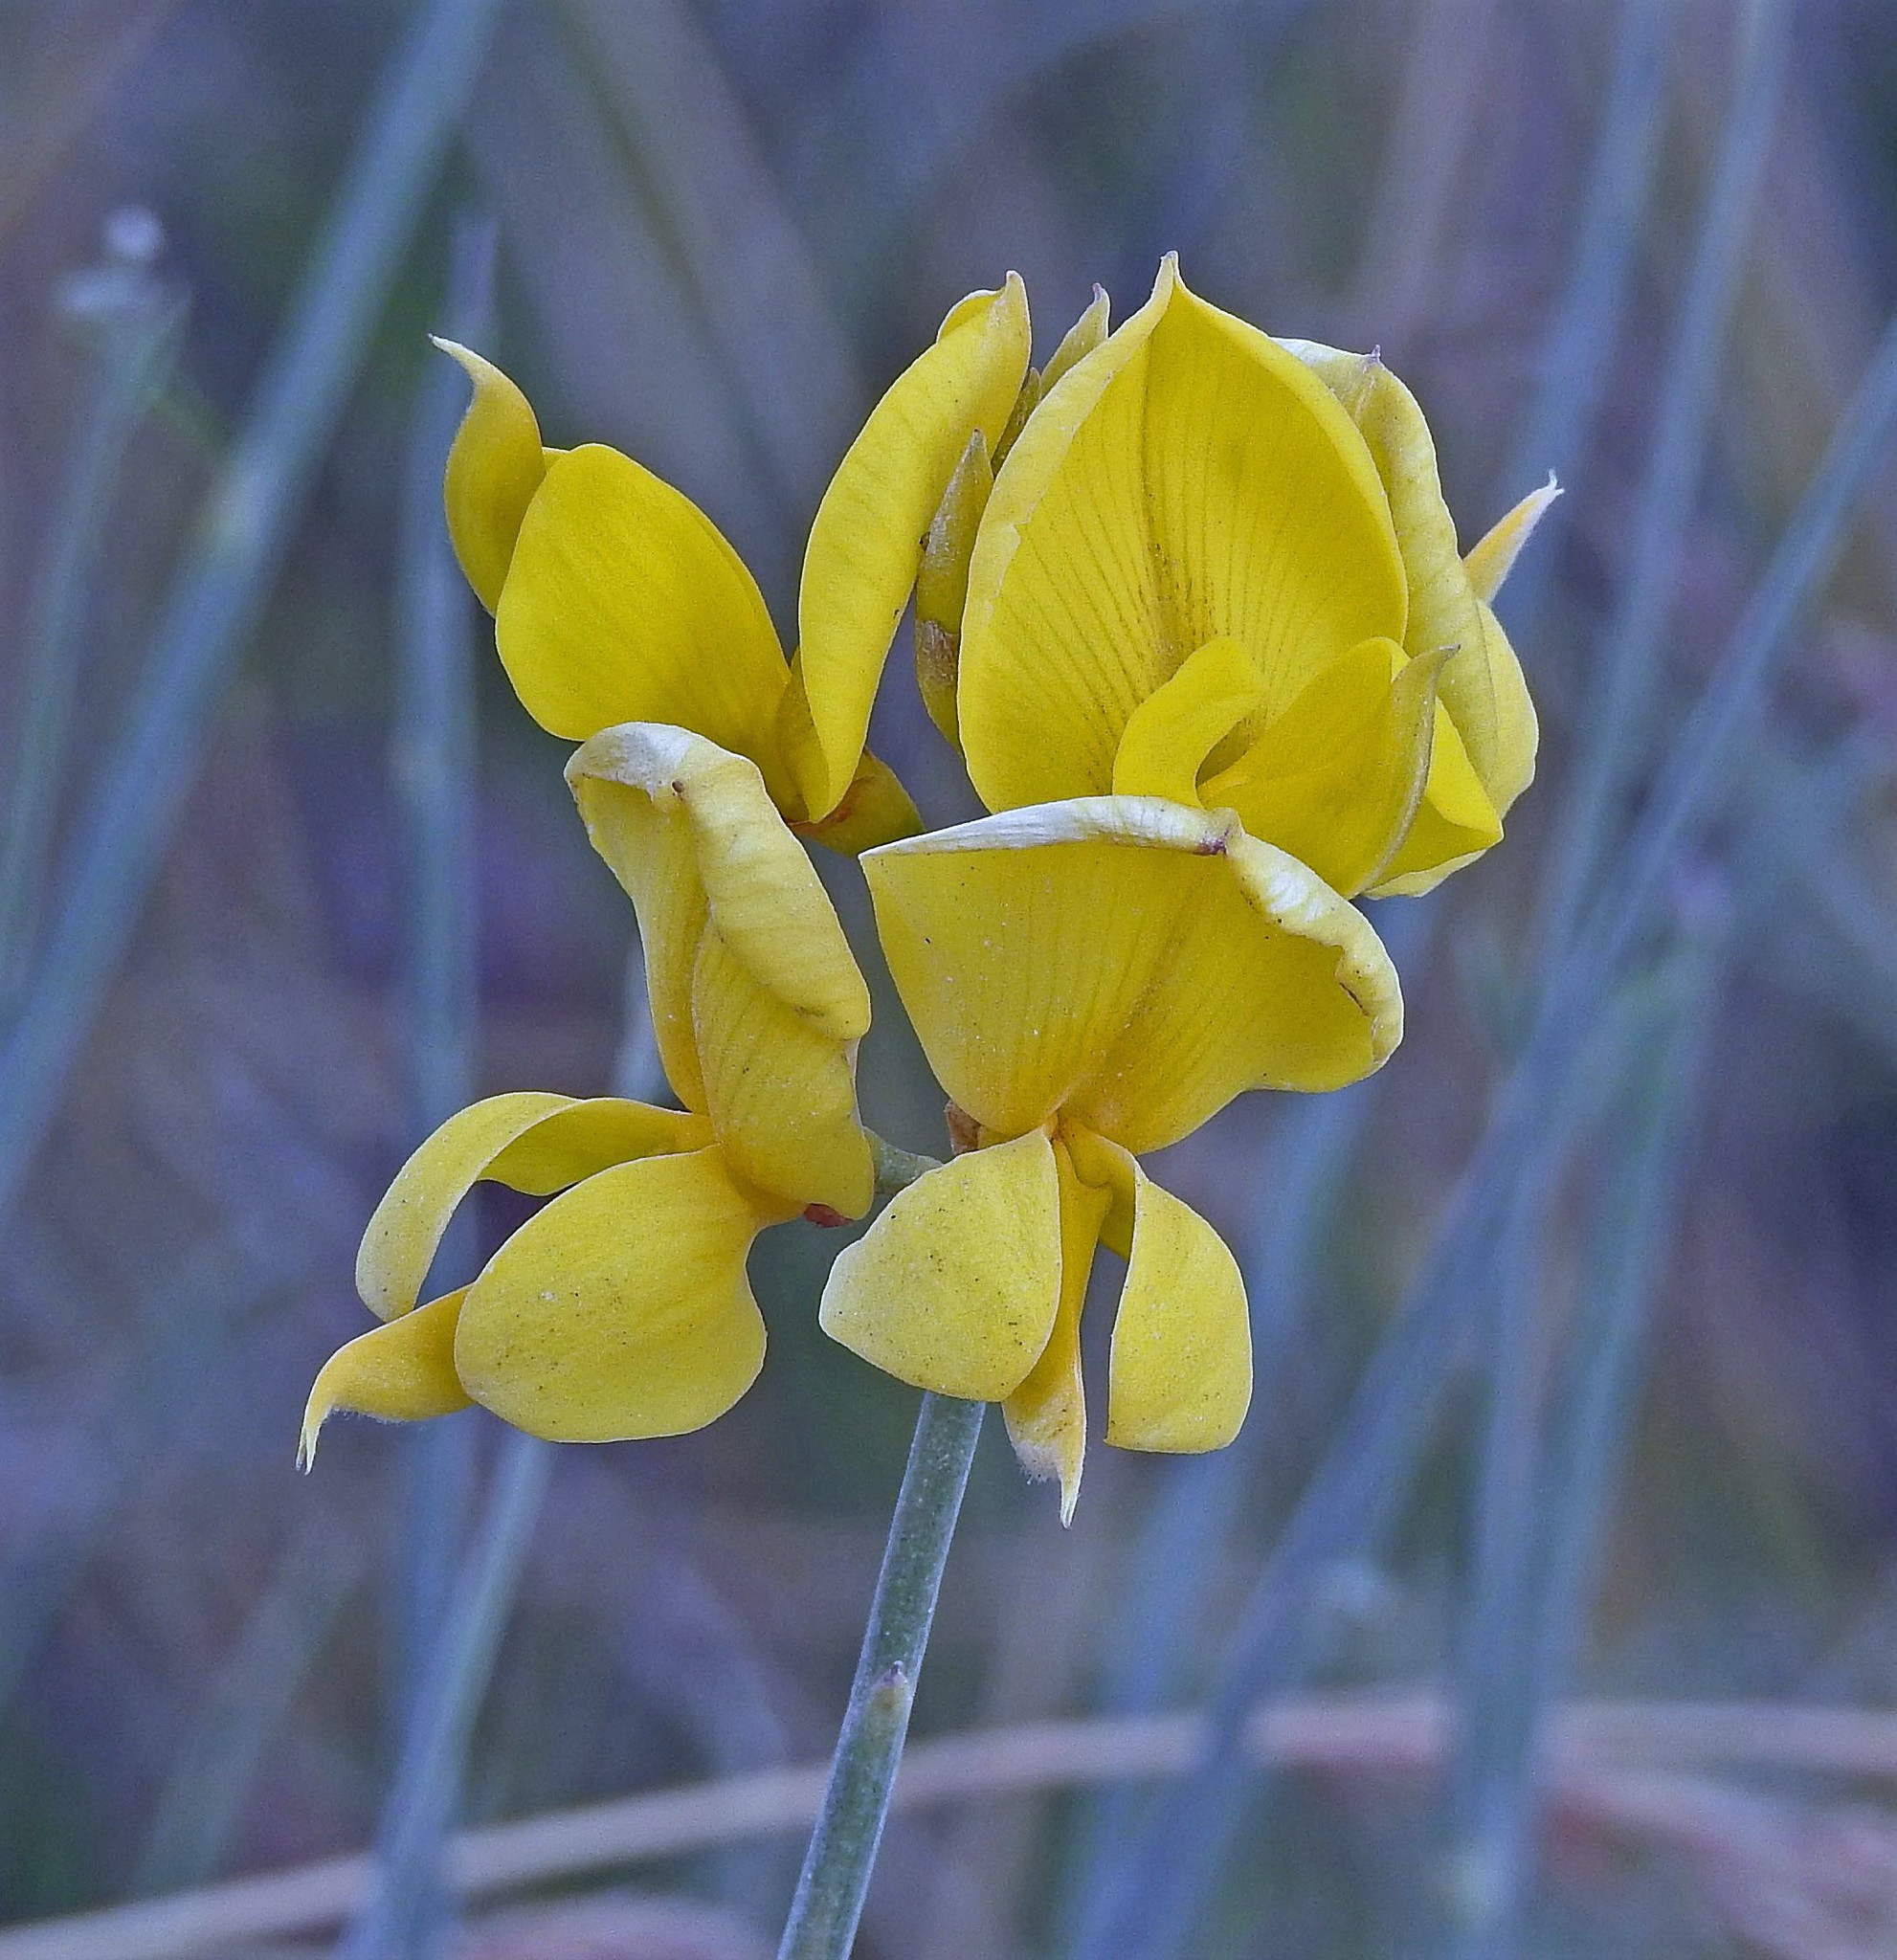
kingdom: Plantae
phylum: Tracheophyta
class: Magnoliopsida
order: Fabales
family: Fabaceae
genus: Spartium
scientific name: Spartium junceum
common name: Spanish broom
